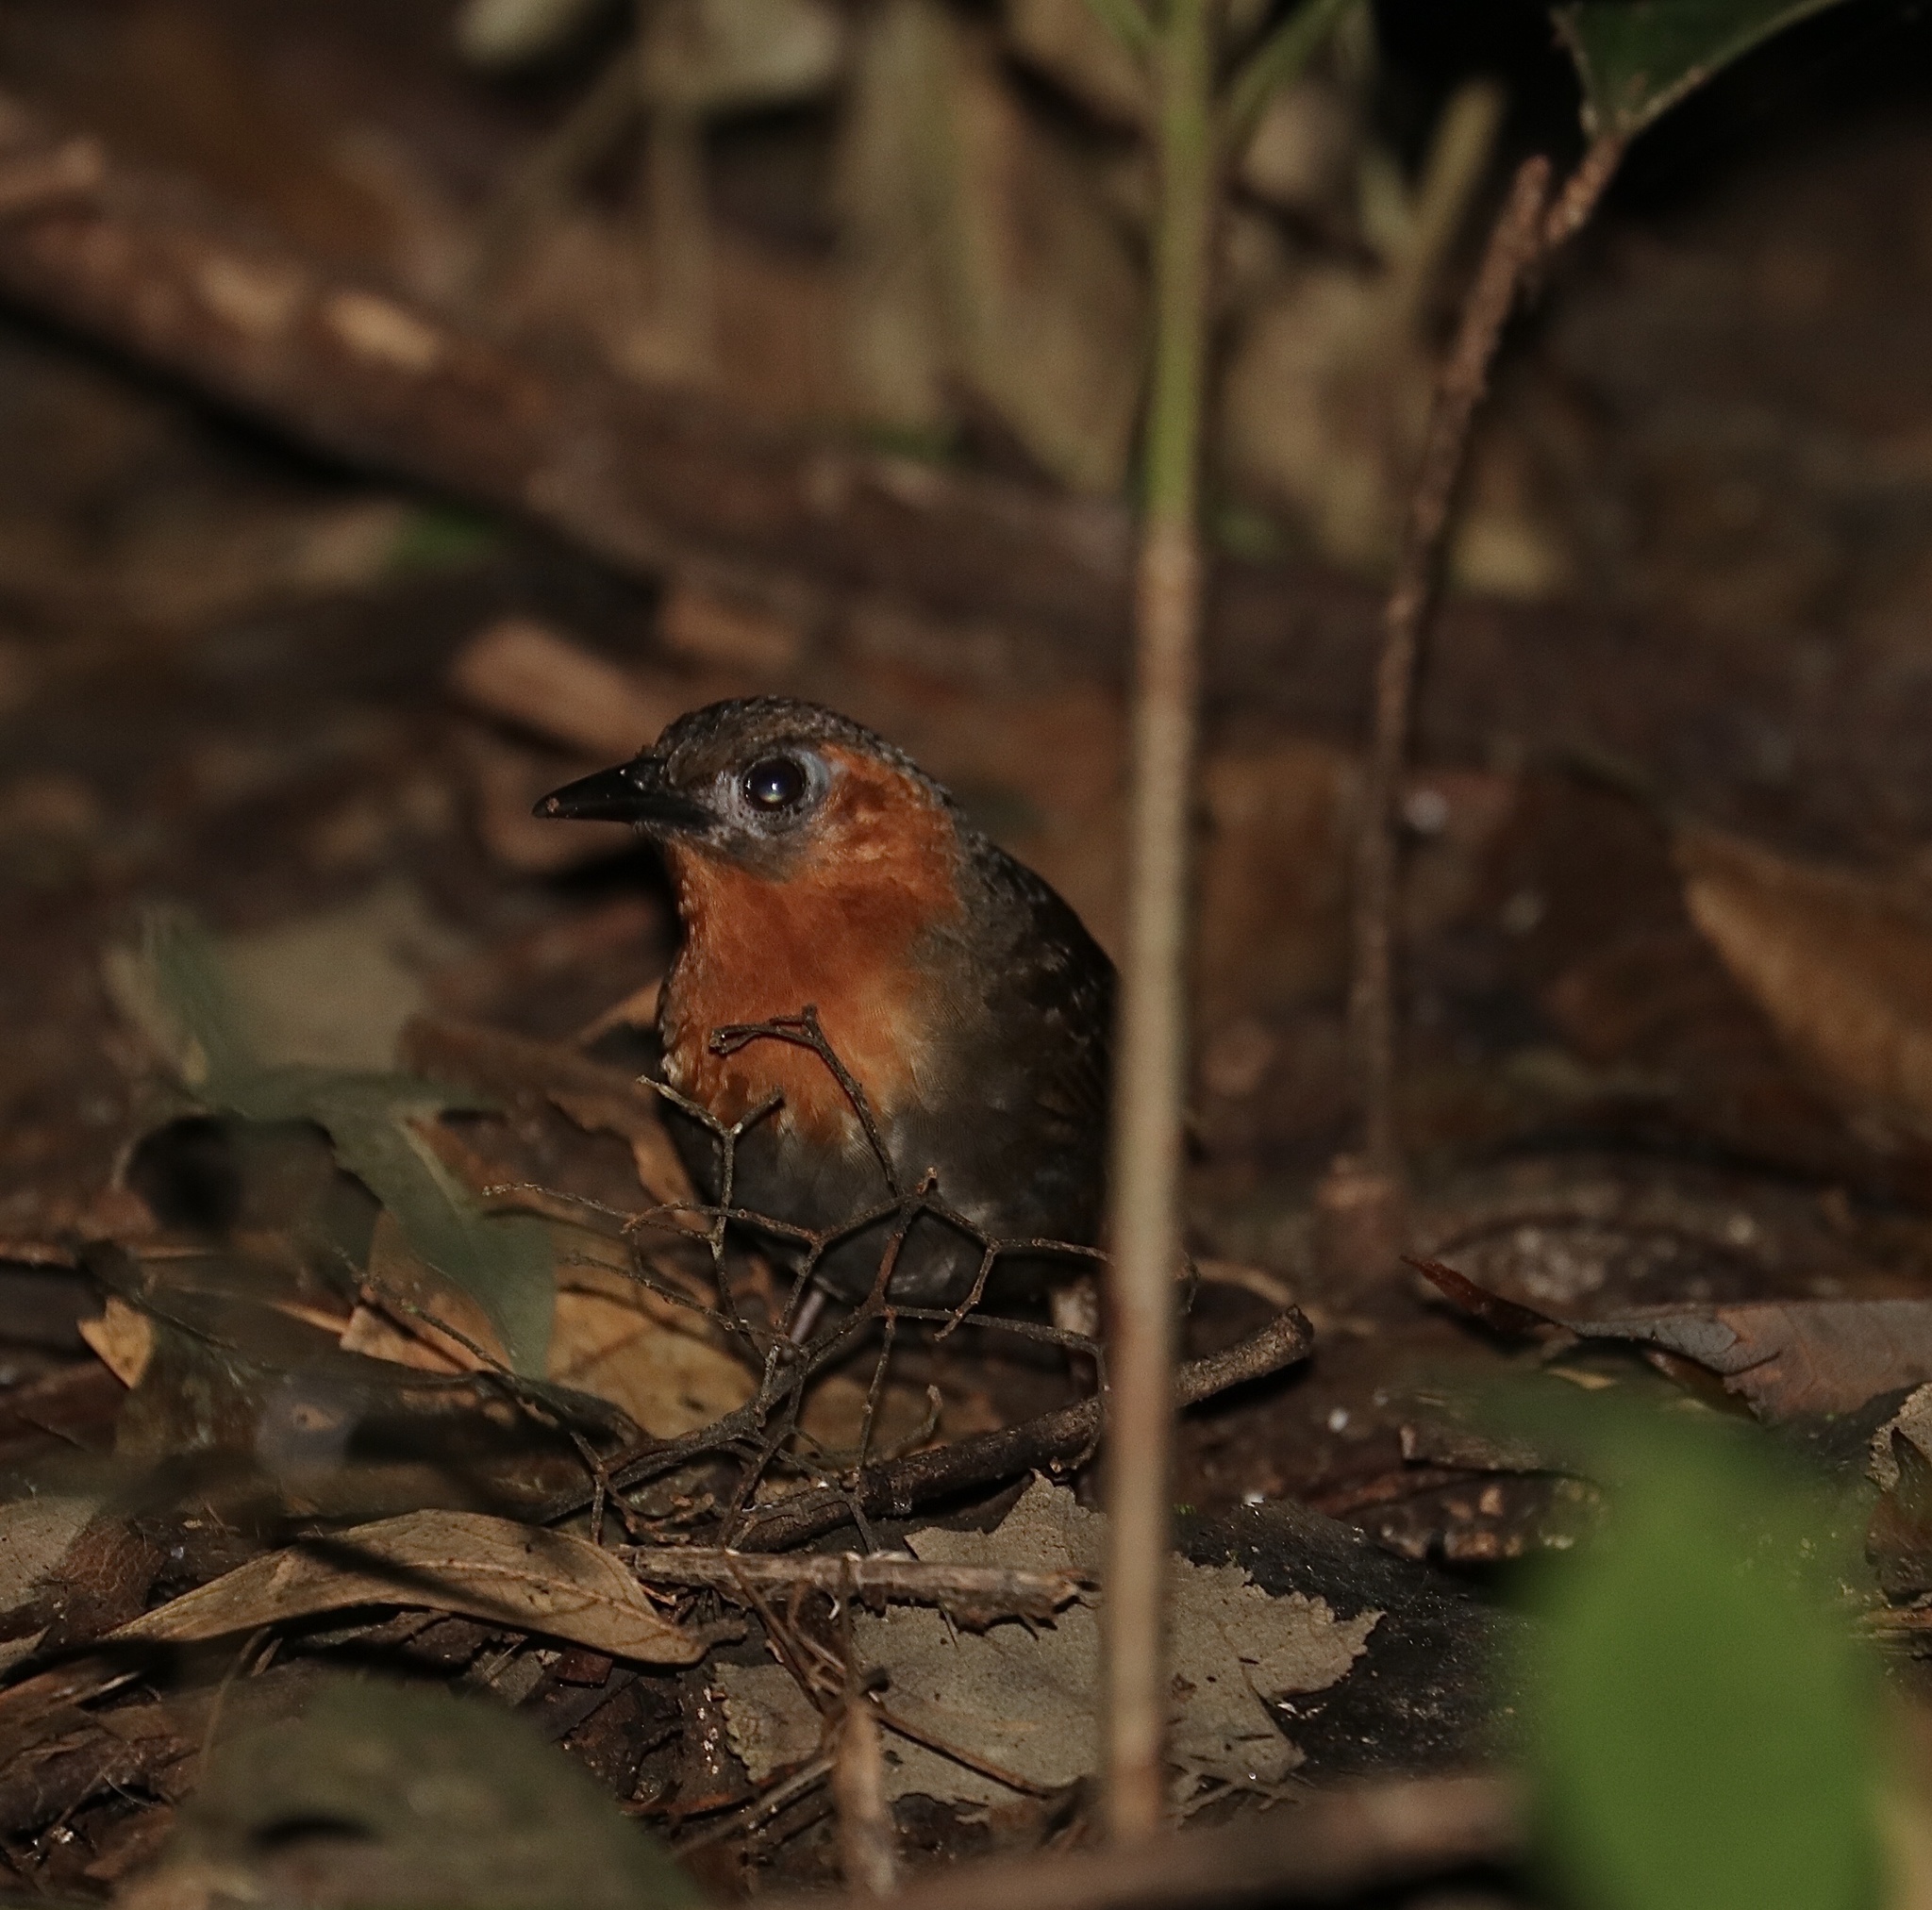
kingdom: Animalia
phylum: Chordata
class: Aves
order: Passeriformes
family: Troglodytidae
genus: Cyphorhinus
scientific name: Cyphorhinus phaeocephalus
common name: Song wren
